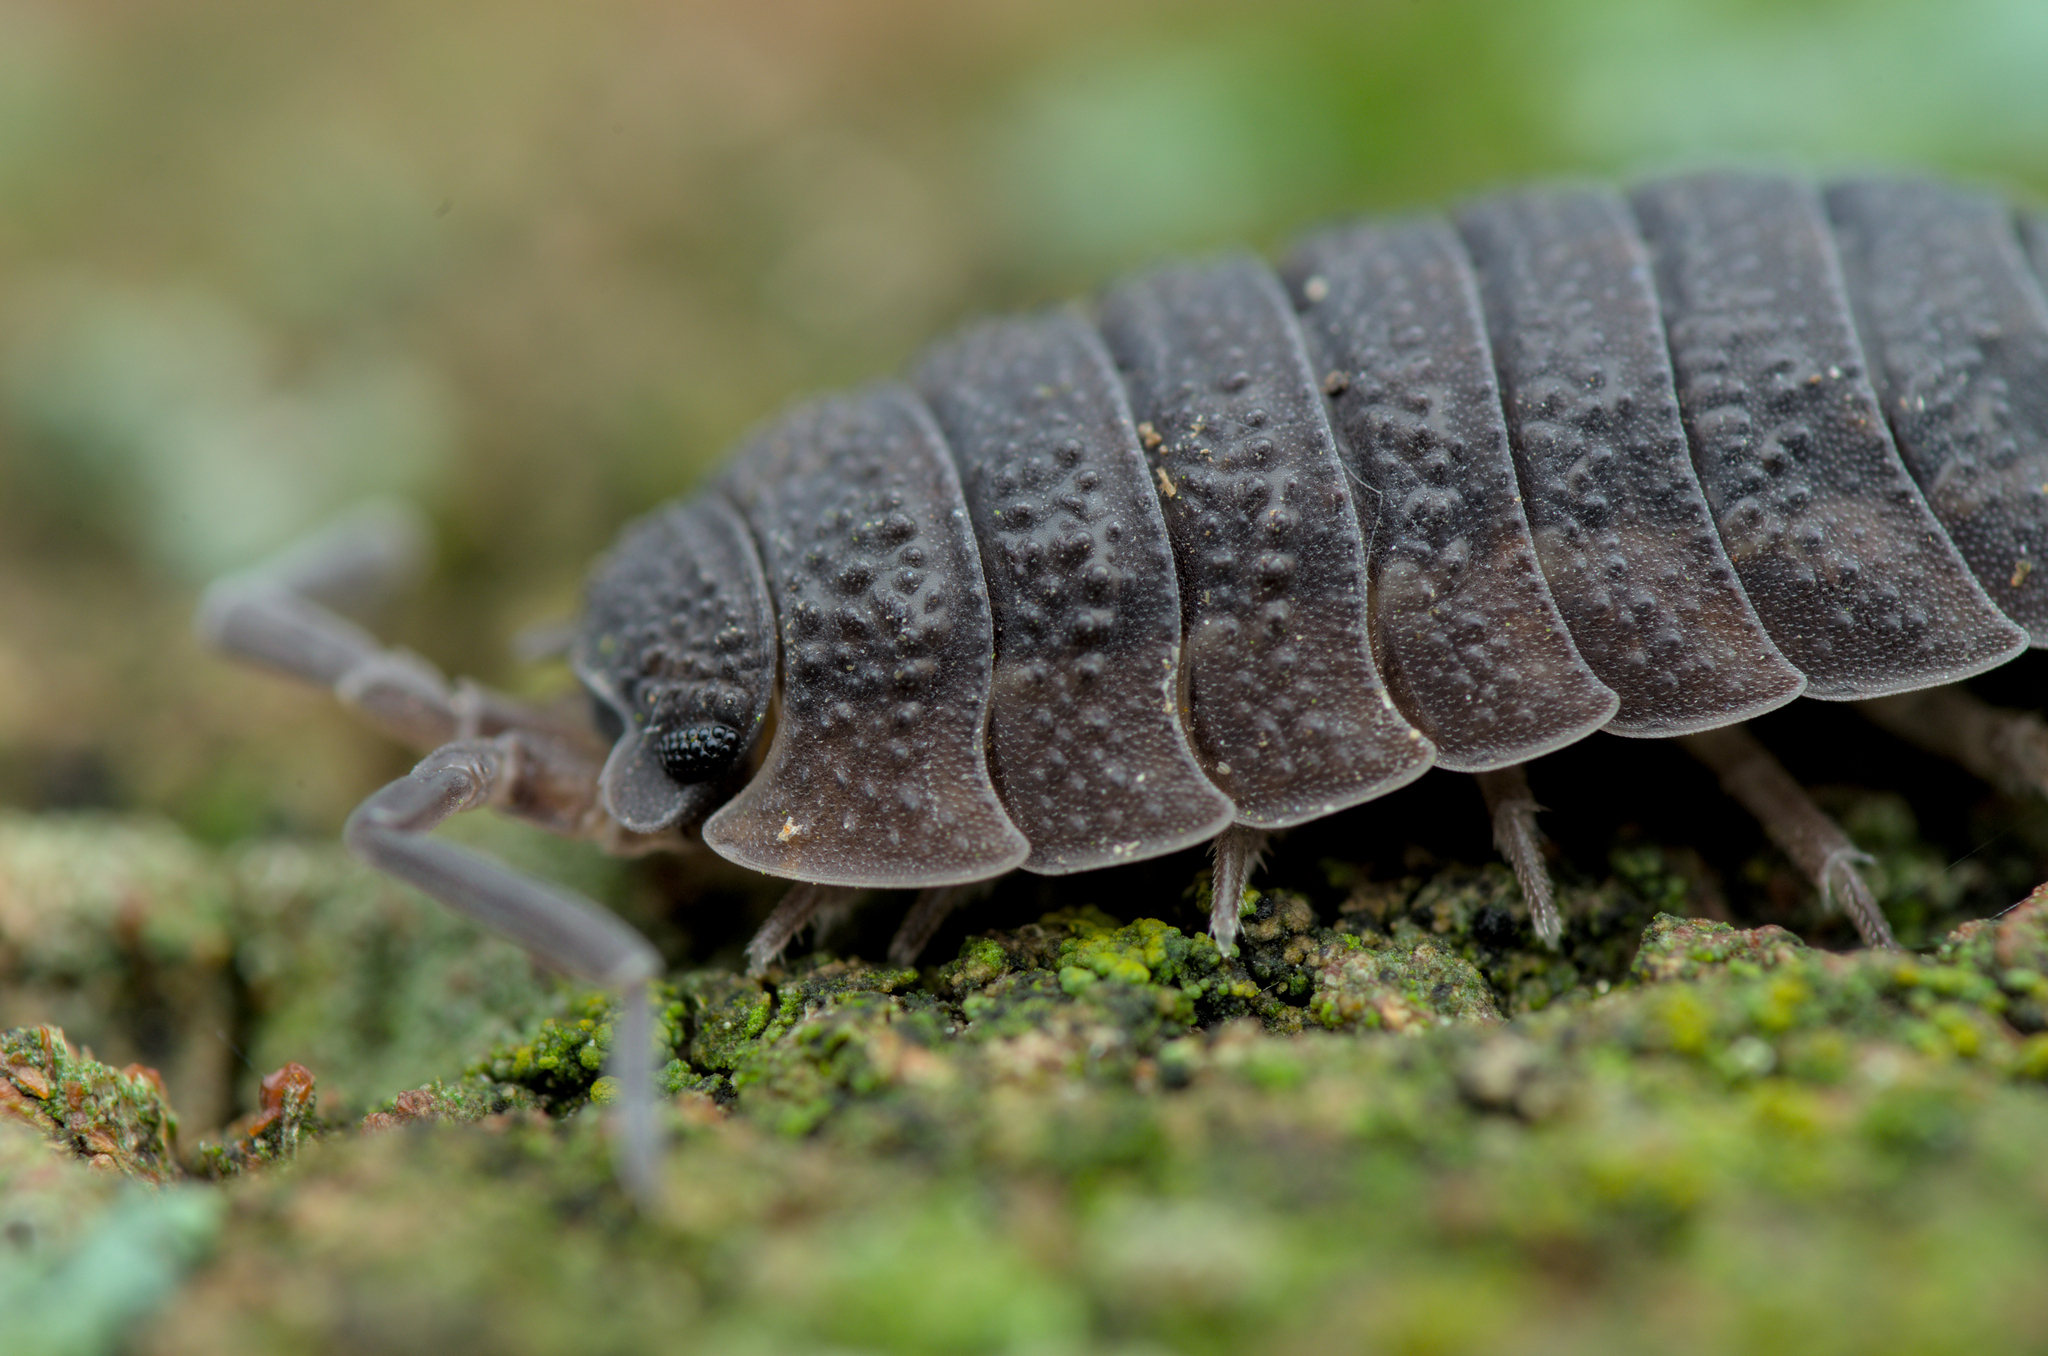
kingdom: Animalia
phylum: Arthropoda
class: Malacostraca
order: Isopoda
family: Porcellionidae
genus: Porcellio
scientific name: Porcellio scaber
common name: Common rough woodlouse
